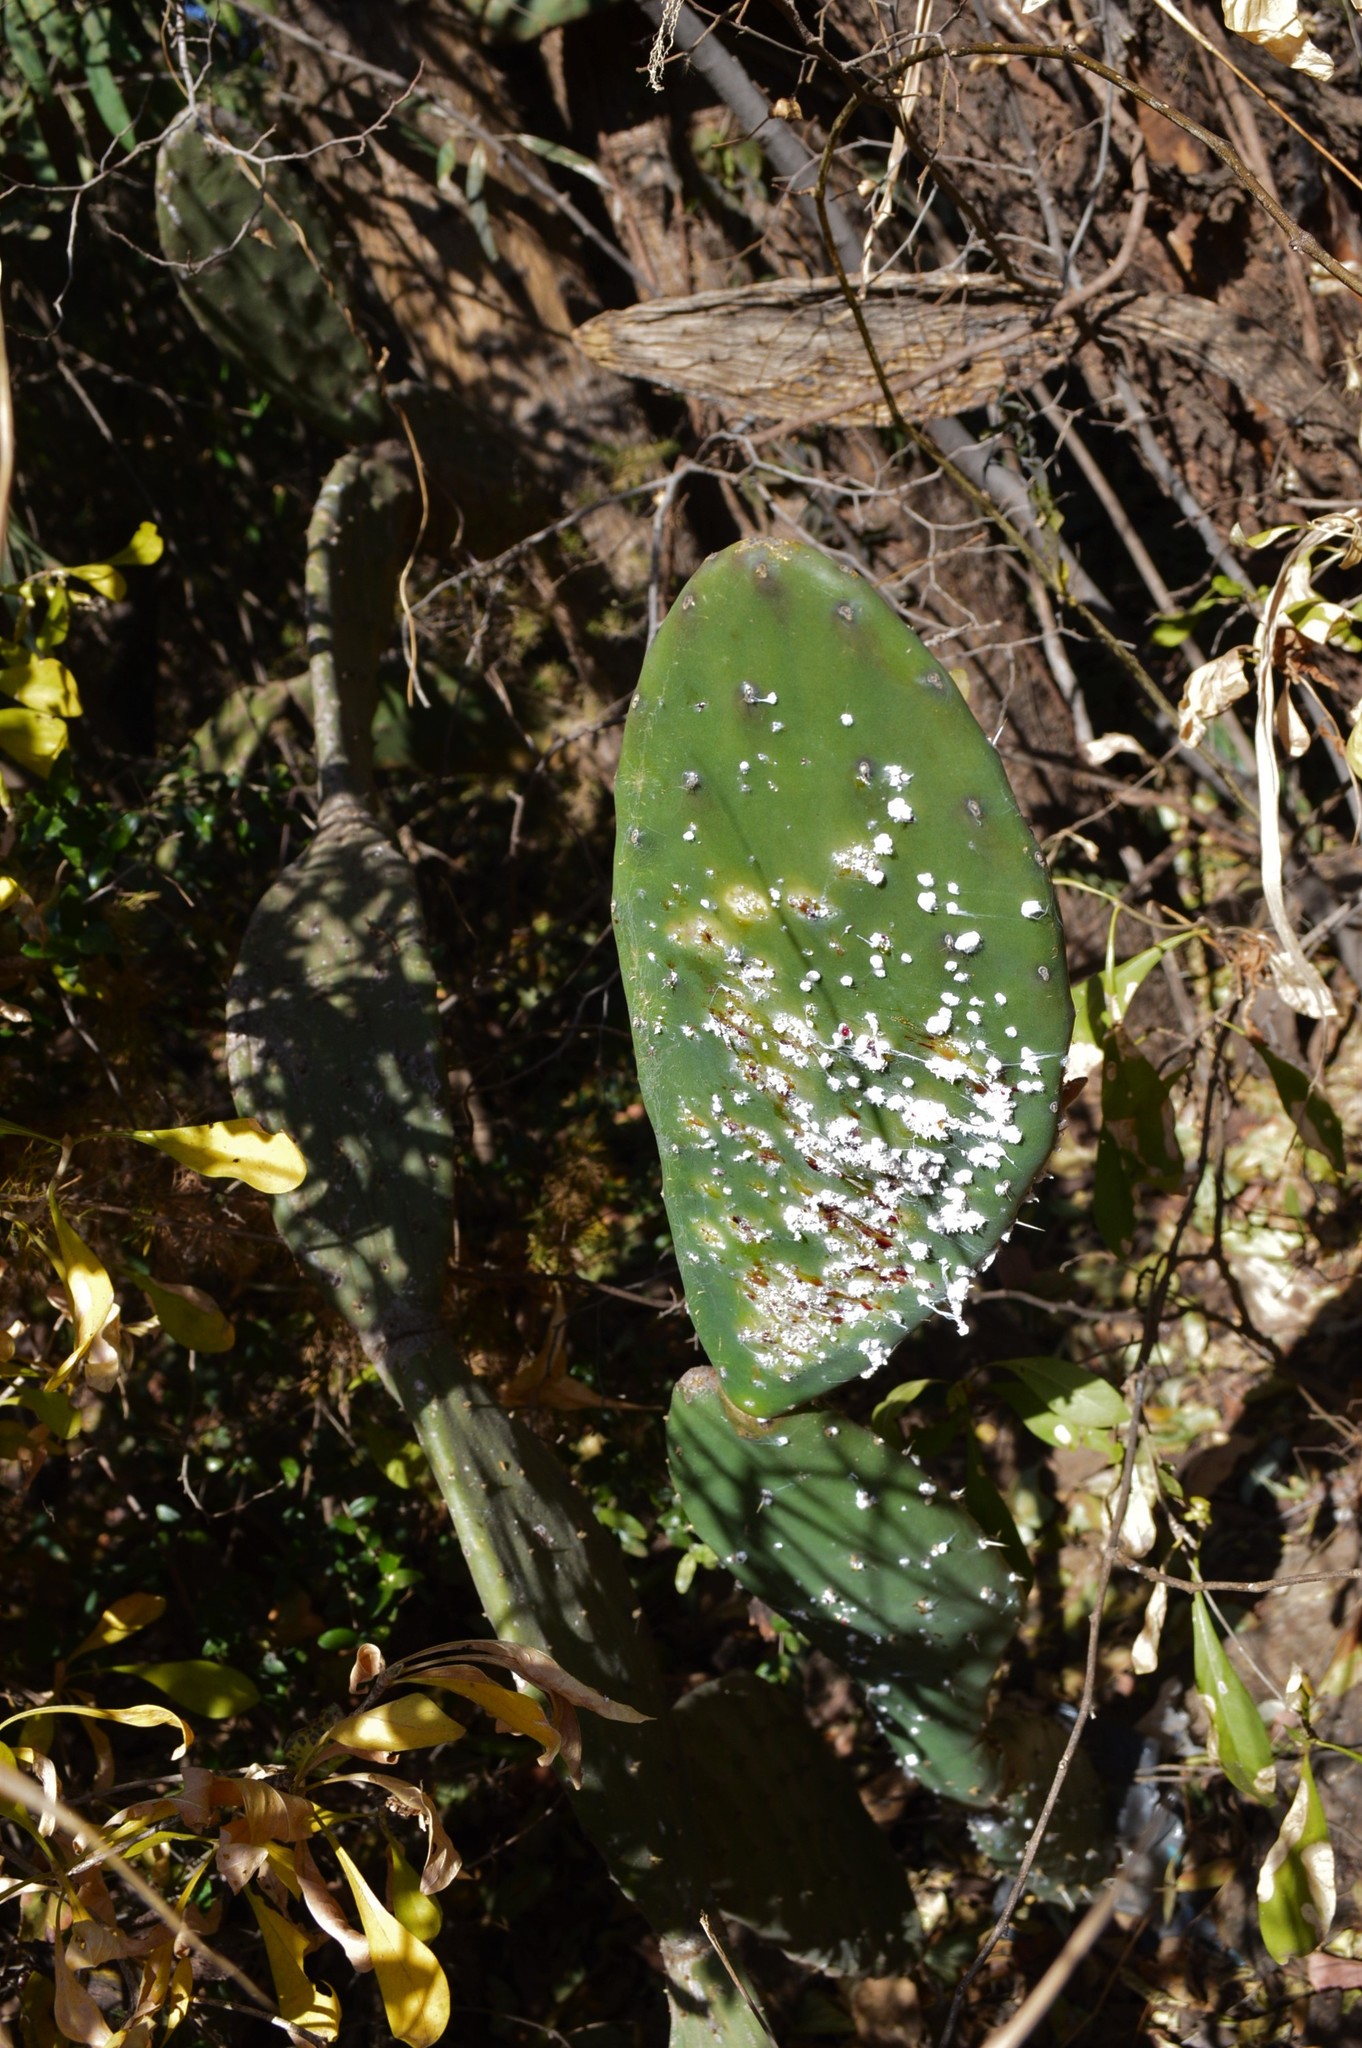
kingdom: Plantae
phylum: Tracheophyta
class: Magnoliopsida
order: Caryophyllales
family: Cactaceae
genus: Opuntia
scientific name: Opuntia tomentosa
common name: Woollyjoint pricklypear
